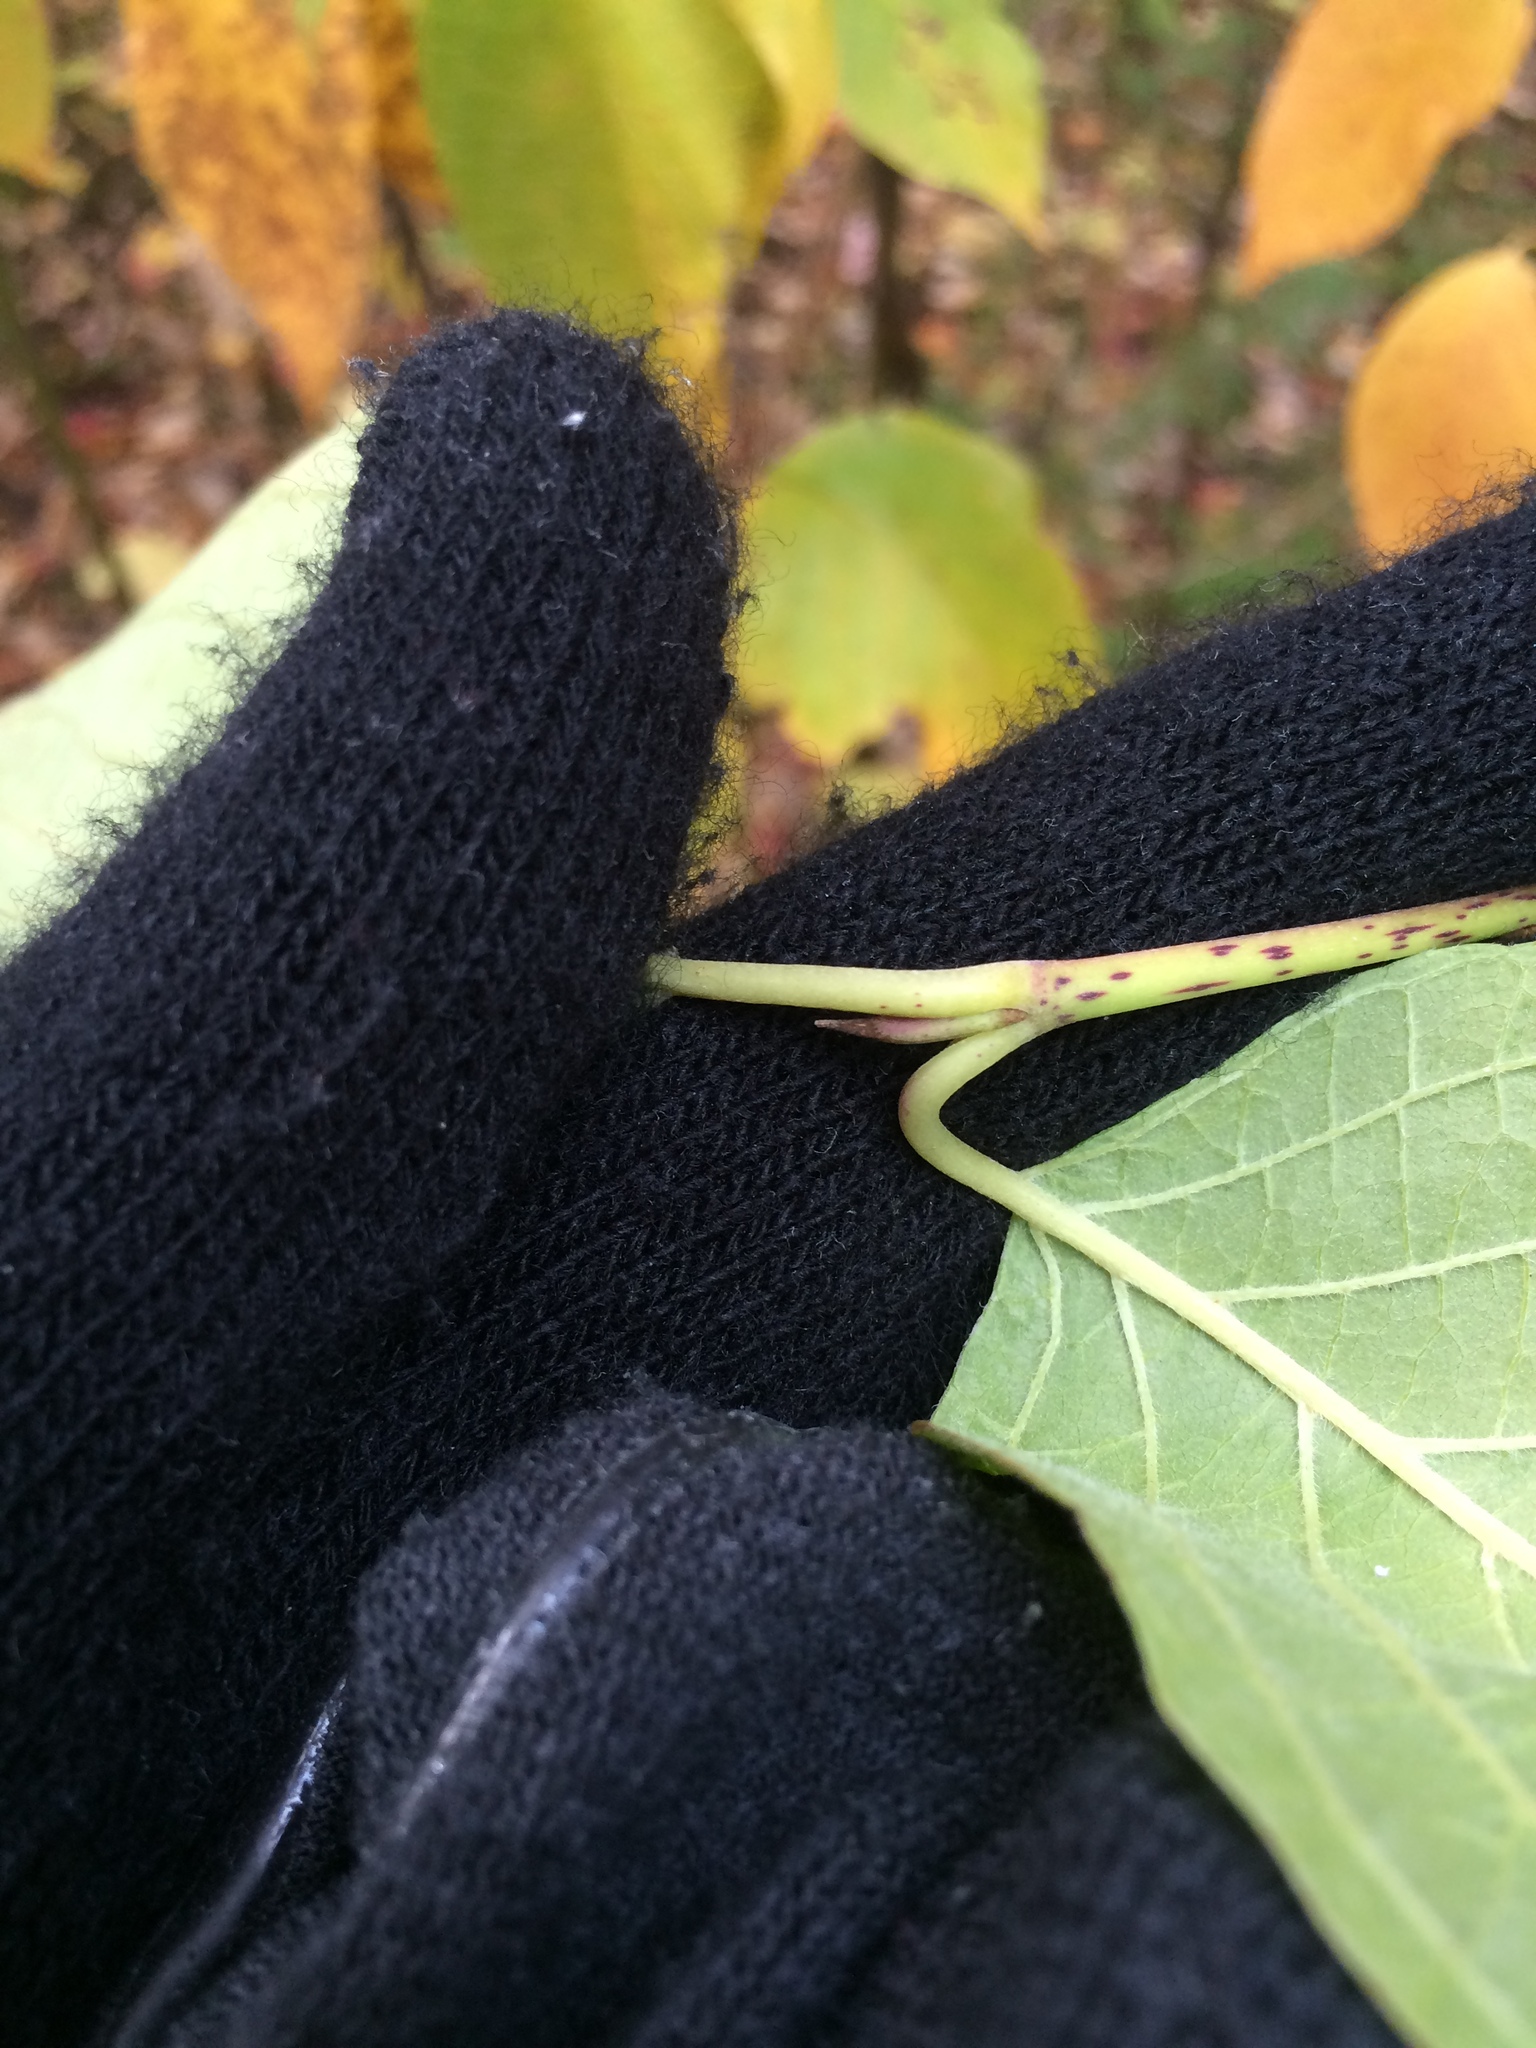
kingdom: Plantae
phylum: Tracheophyta
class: Magnoliopsida
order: Cornales
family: Cornaceae
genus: Cornus
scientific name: Cornus rugosa
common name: Round-leaf dogwood
